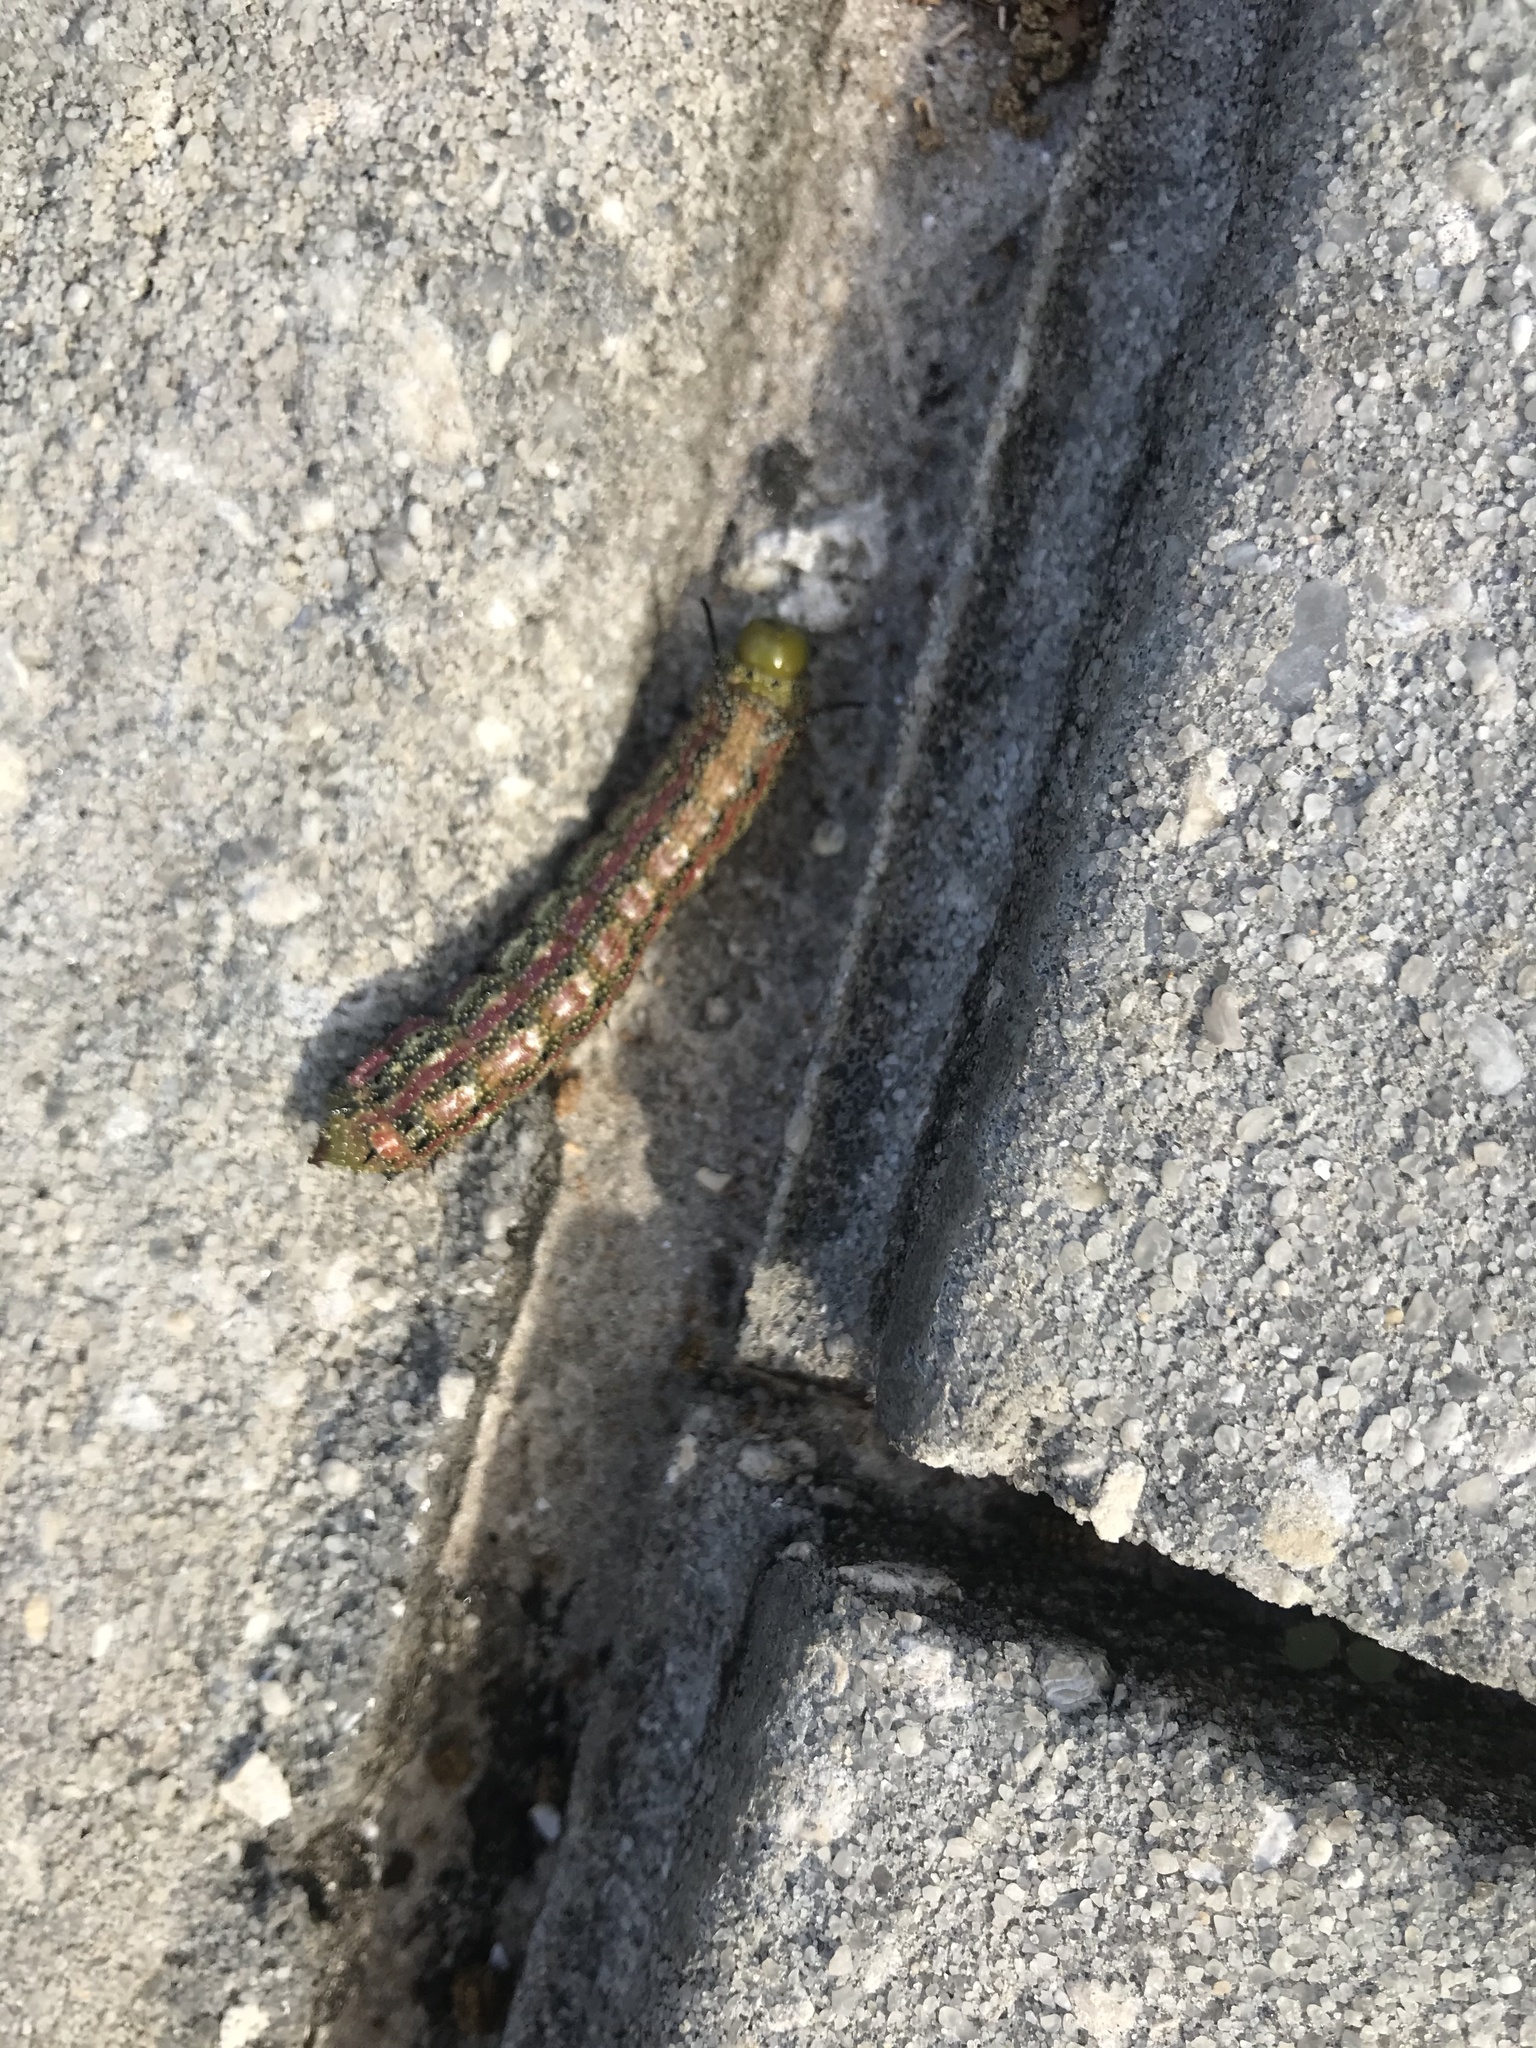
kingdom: Animalia
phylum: Arthropoda
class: Insecta
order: Lepidoptera
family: Saturniidae
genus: Anisota
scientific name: Anisota virginiensis
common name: Pink striped oakworm moth
